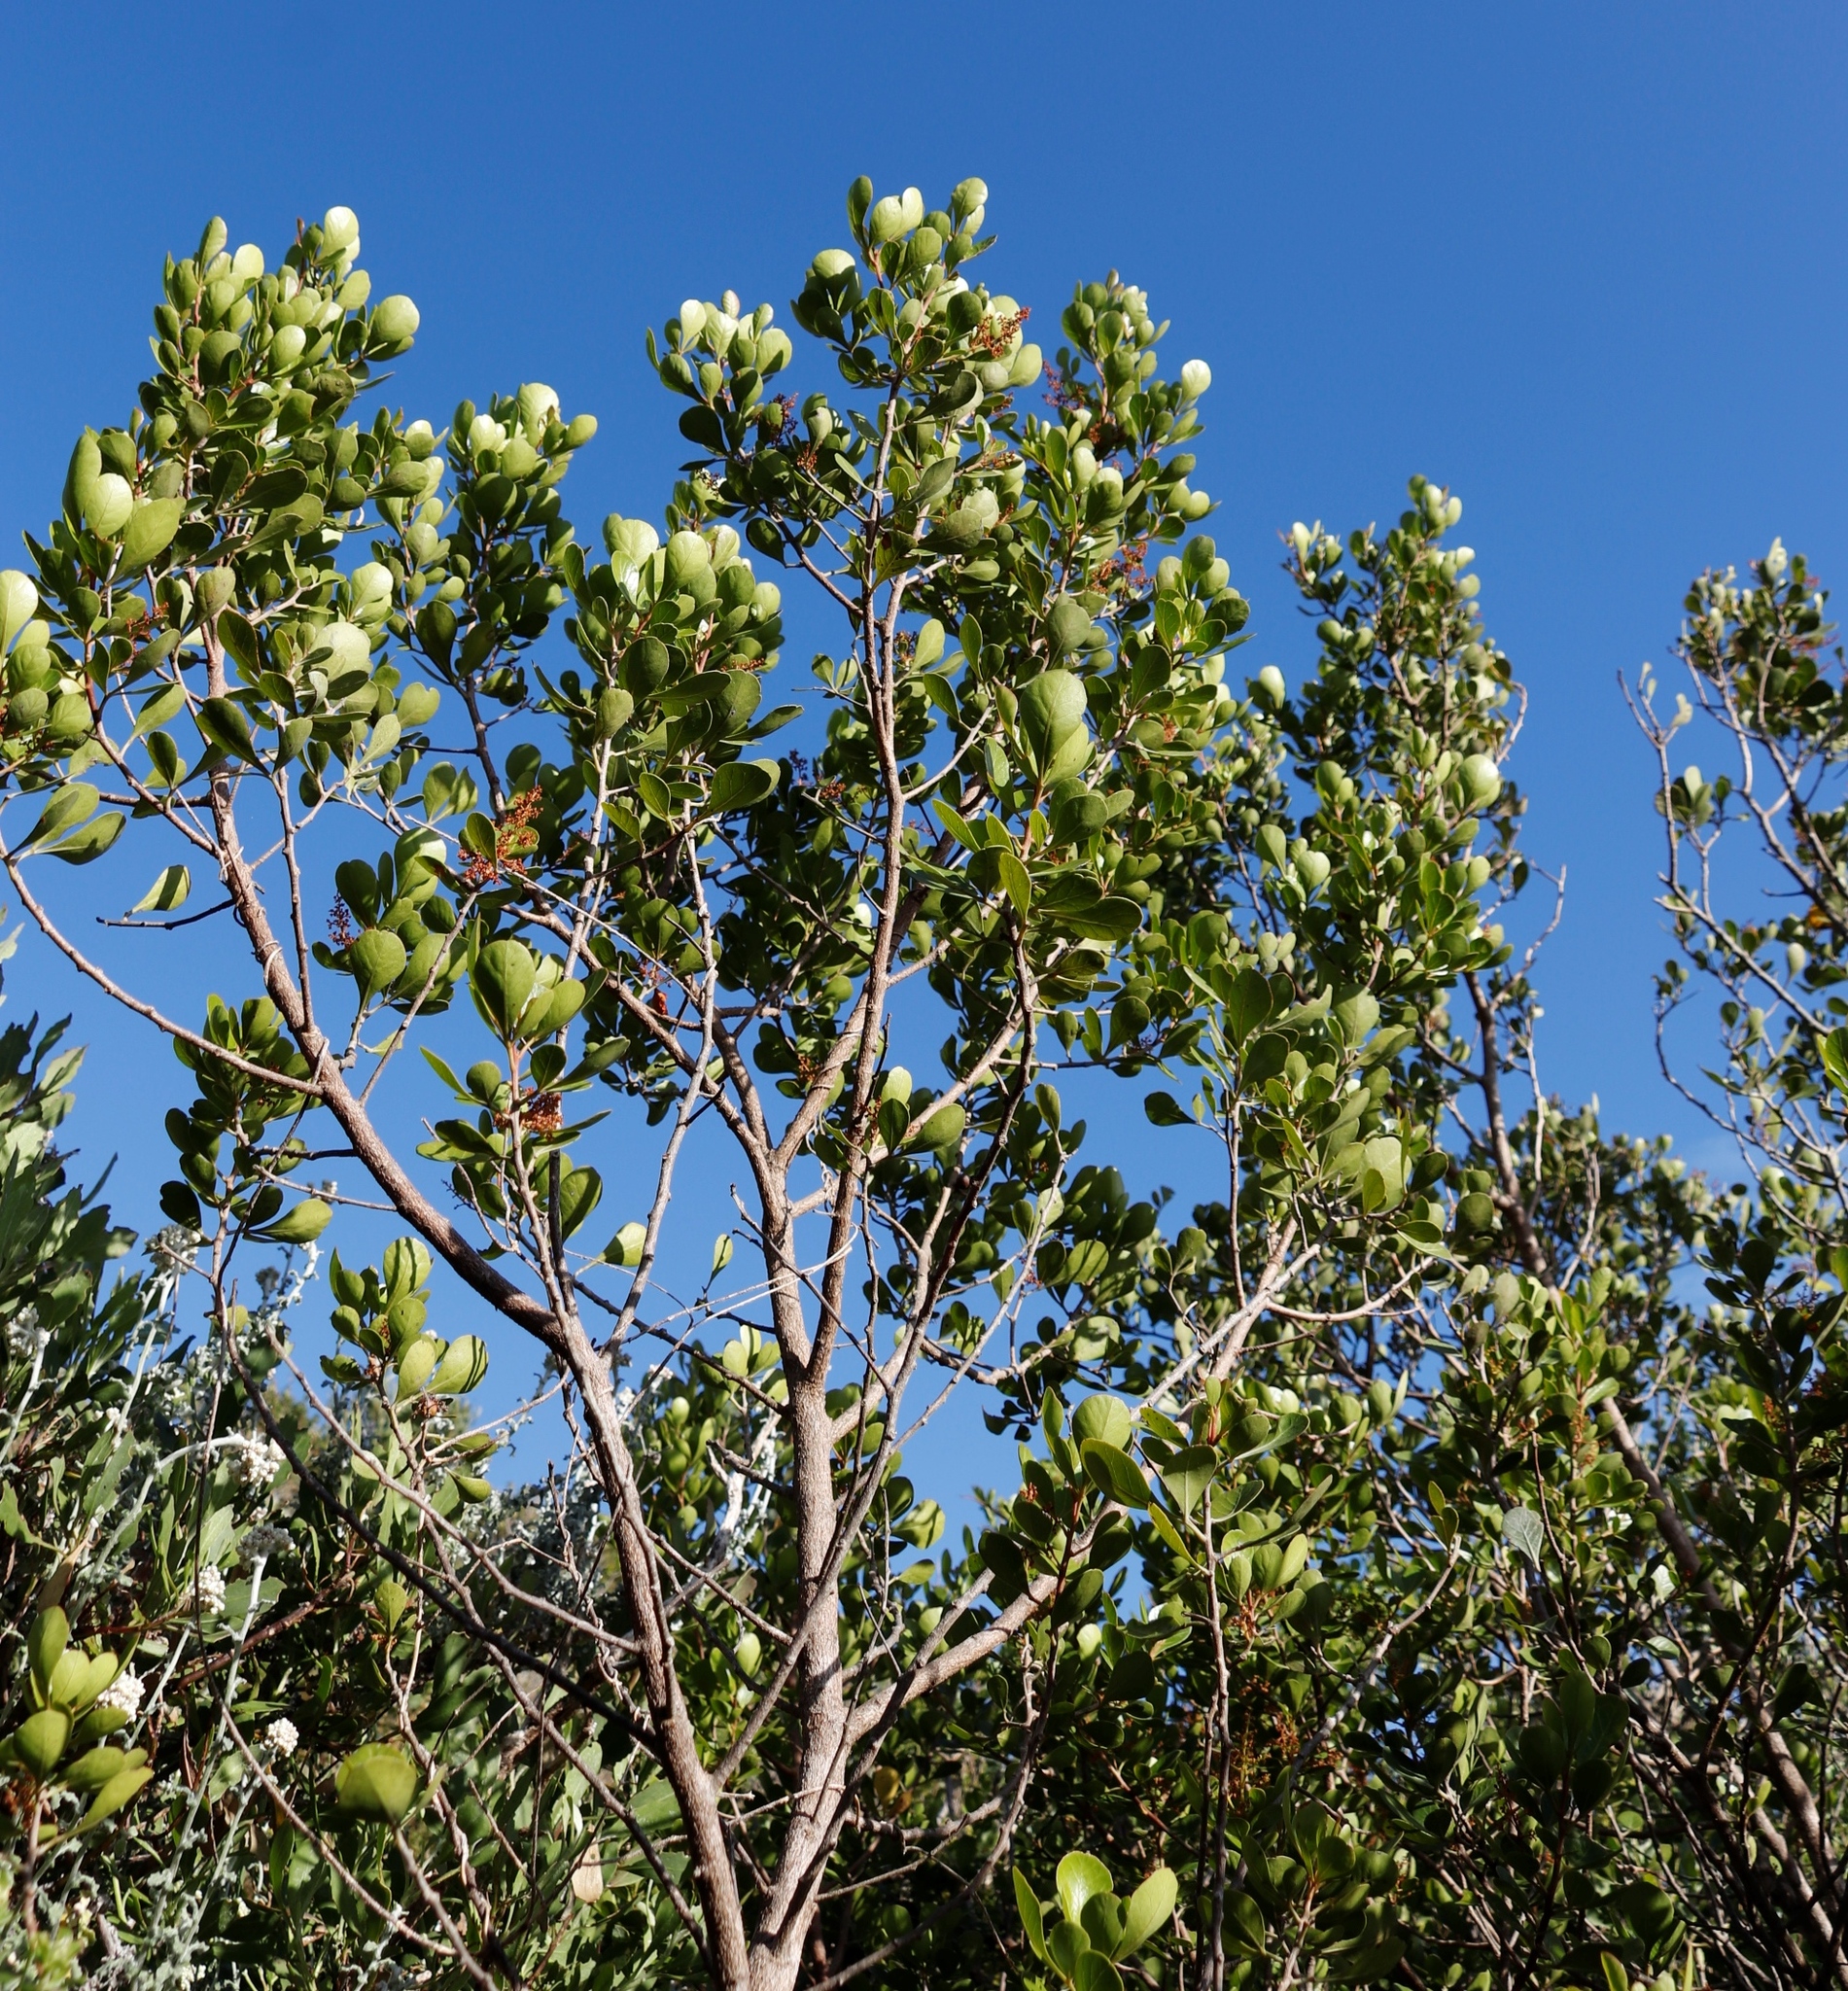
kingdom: Plantae
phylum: Tracheophyta
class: Magnoliopsida
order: Sapindales
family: Anacardiaceae
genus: Searsia
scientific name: Searsia lucida
